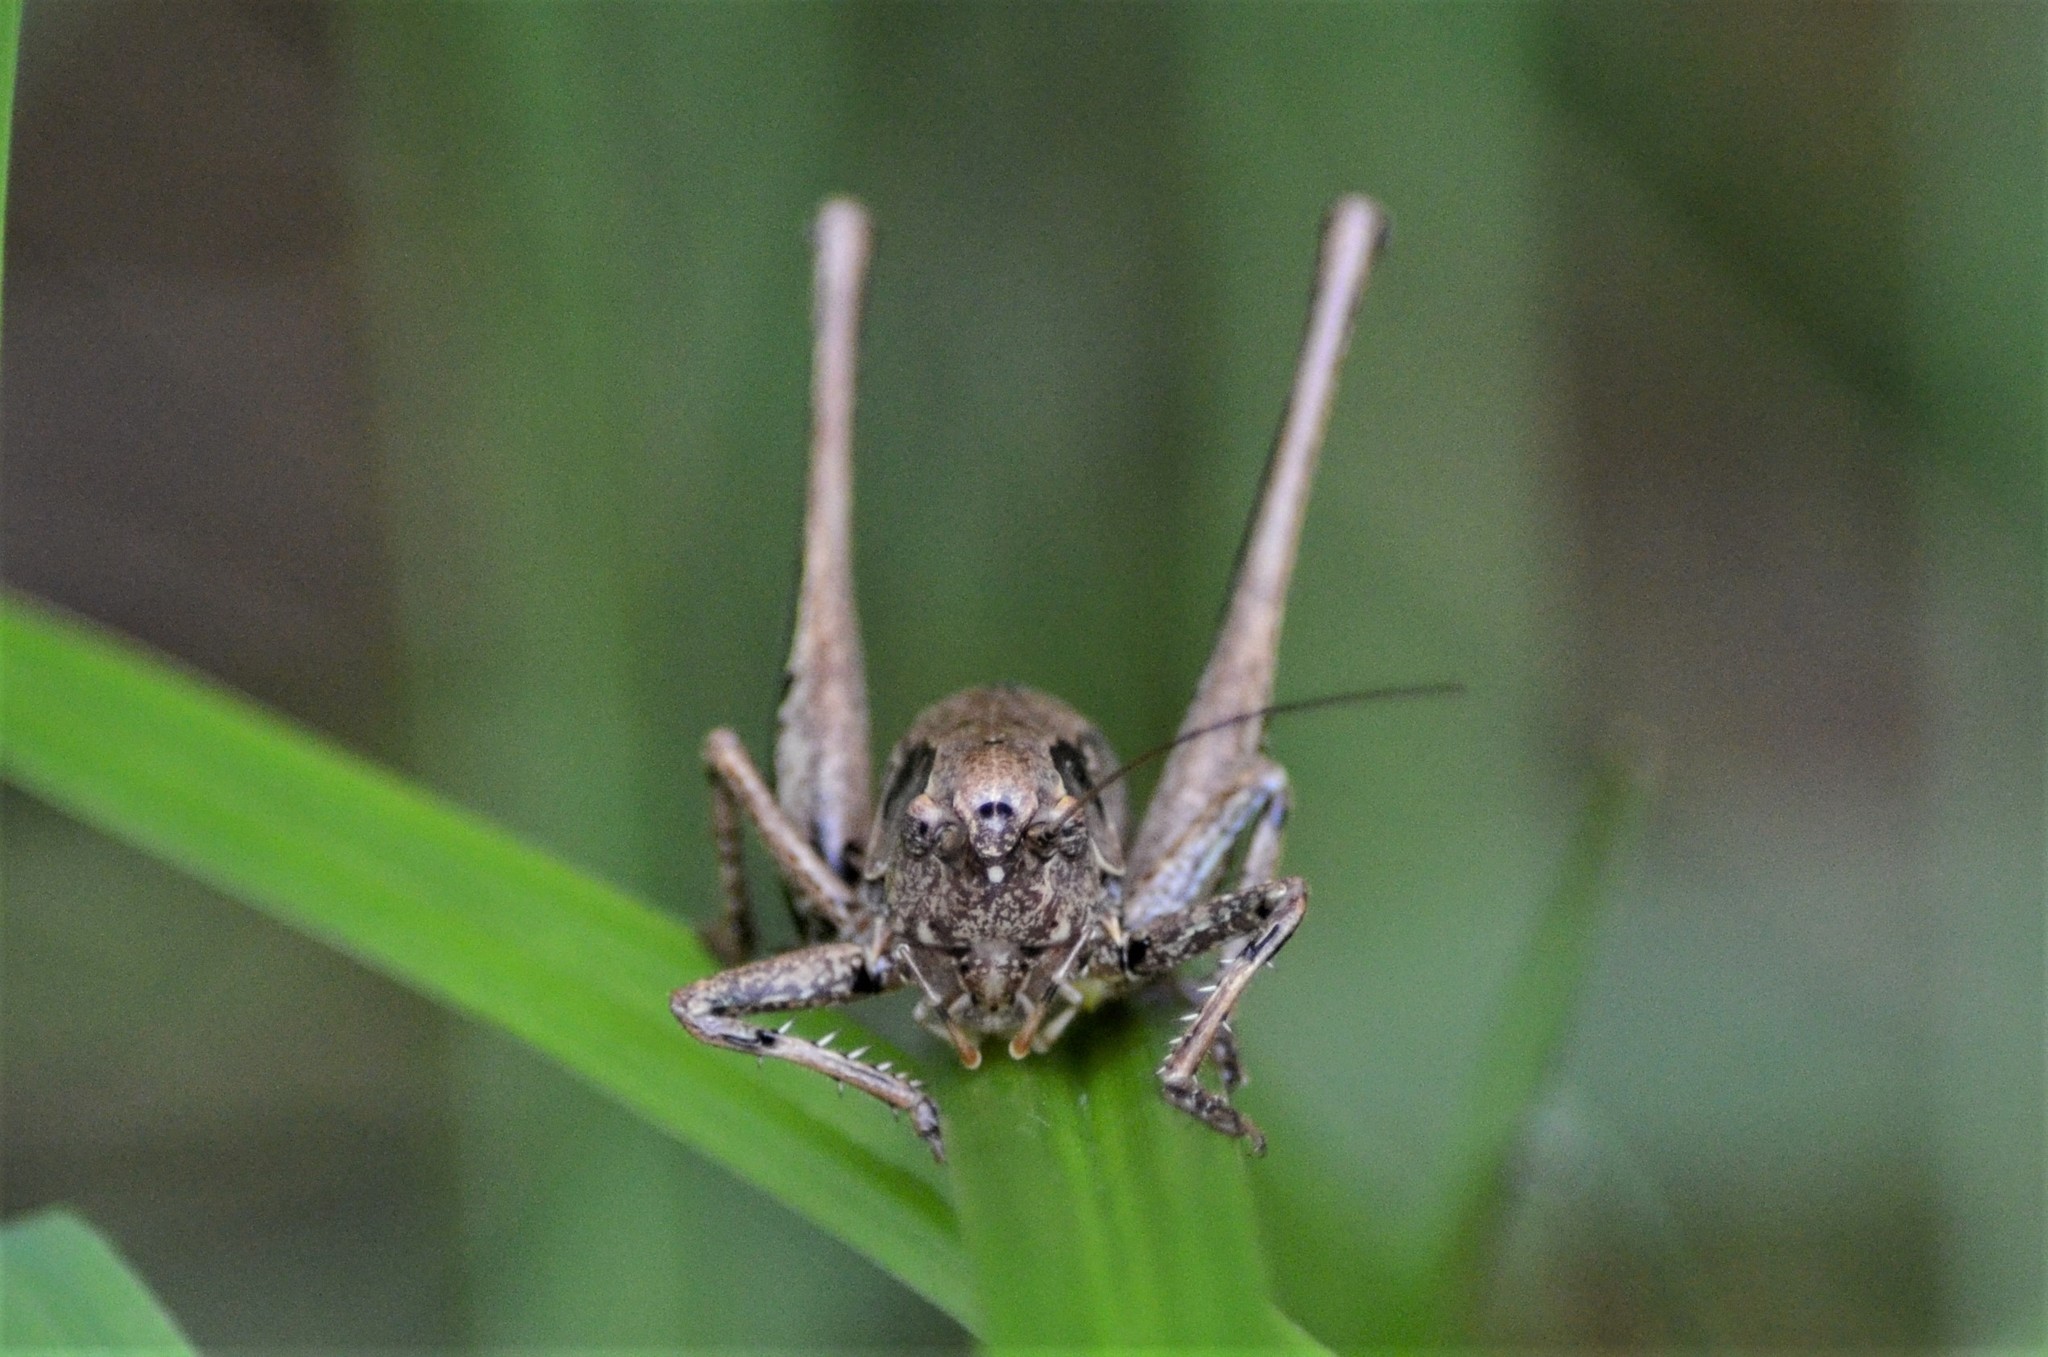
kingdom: Animalia
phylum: Arthropoda
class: Insecta
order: Orthoptera
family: Tettigoniidae
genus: Pholidoptera
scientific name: Pholidoptera griseoaptera
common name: Dark bush-cricket
